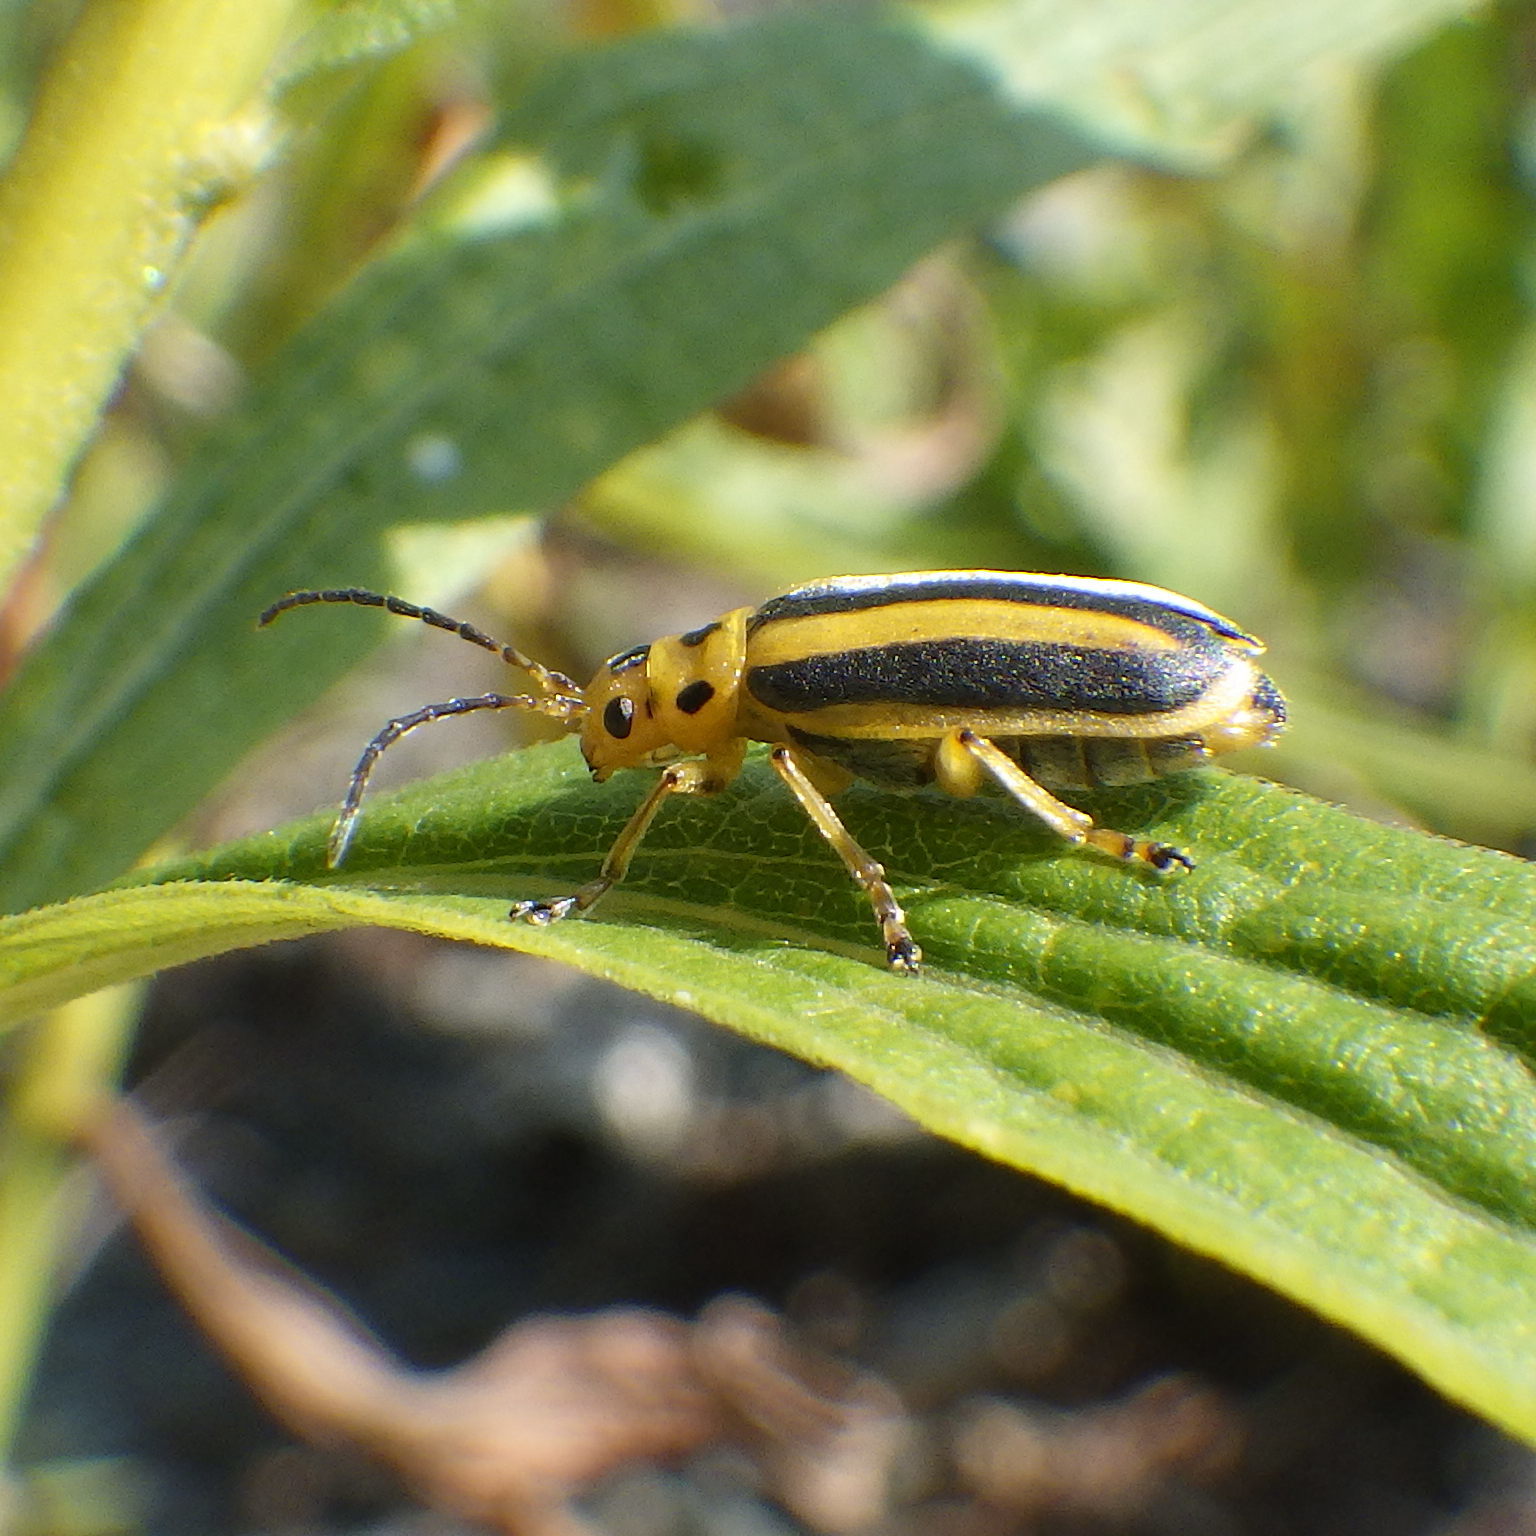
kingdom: Animalia
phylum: Arthropoda
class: Insecta
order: Coleoptera
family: Chrysomelidae
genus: Trirhabda
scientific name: Trirhabda canadensis
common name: Goldenrod leaf beetle
